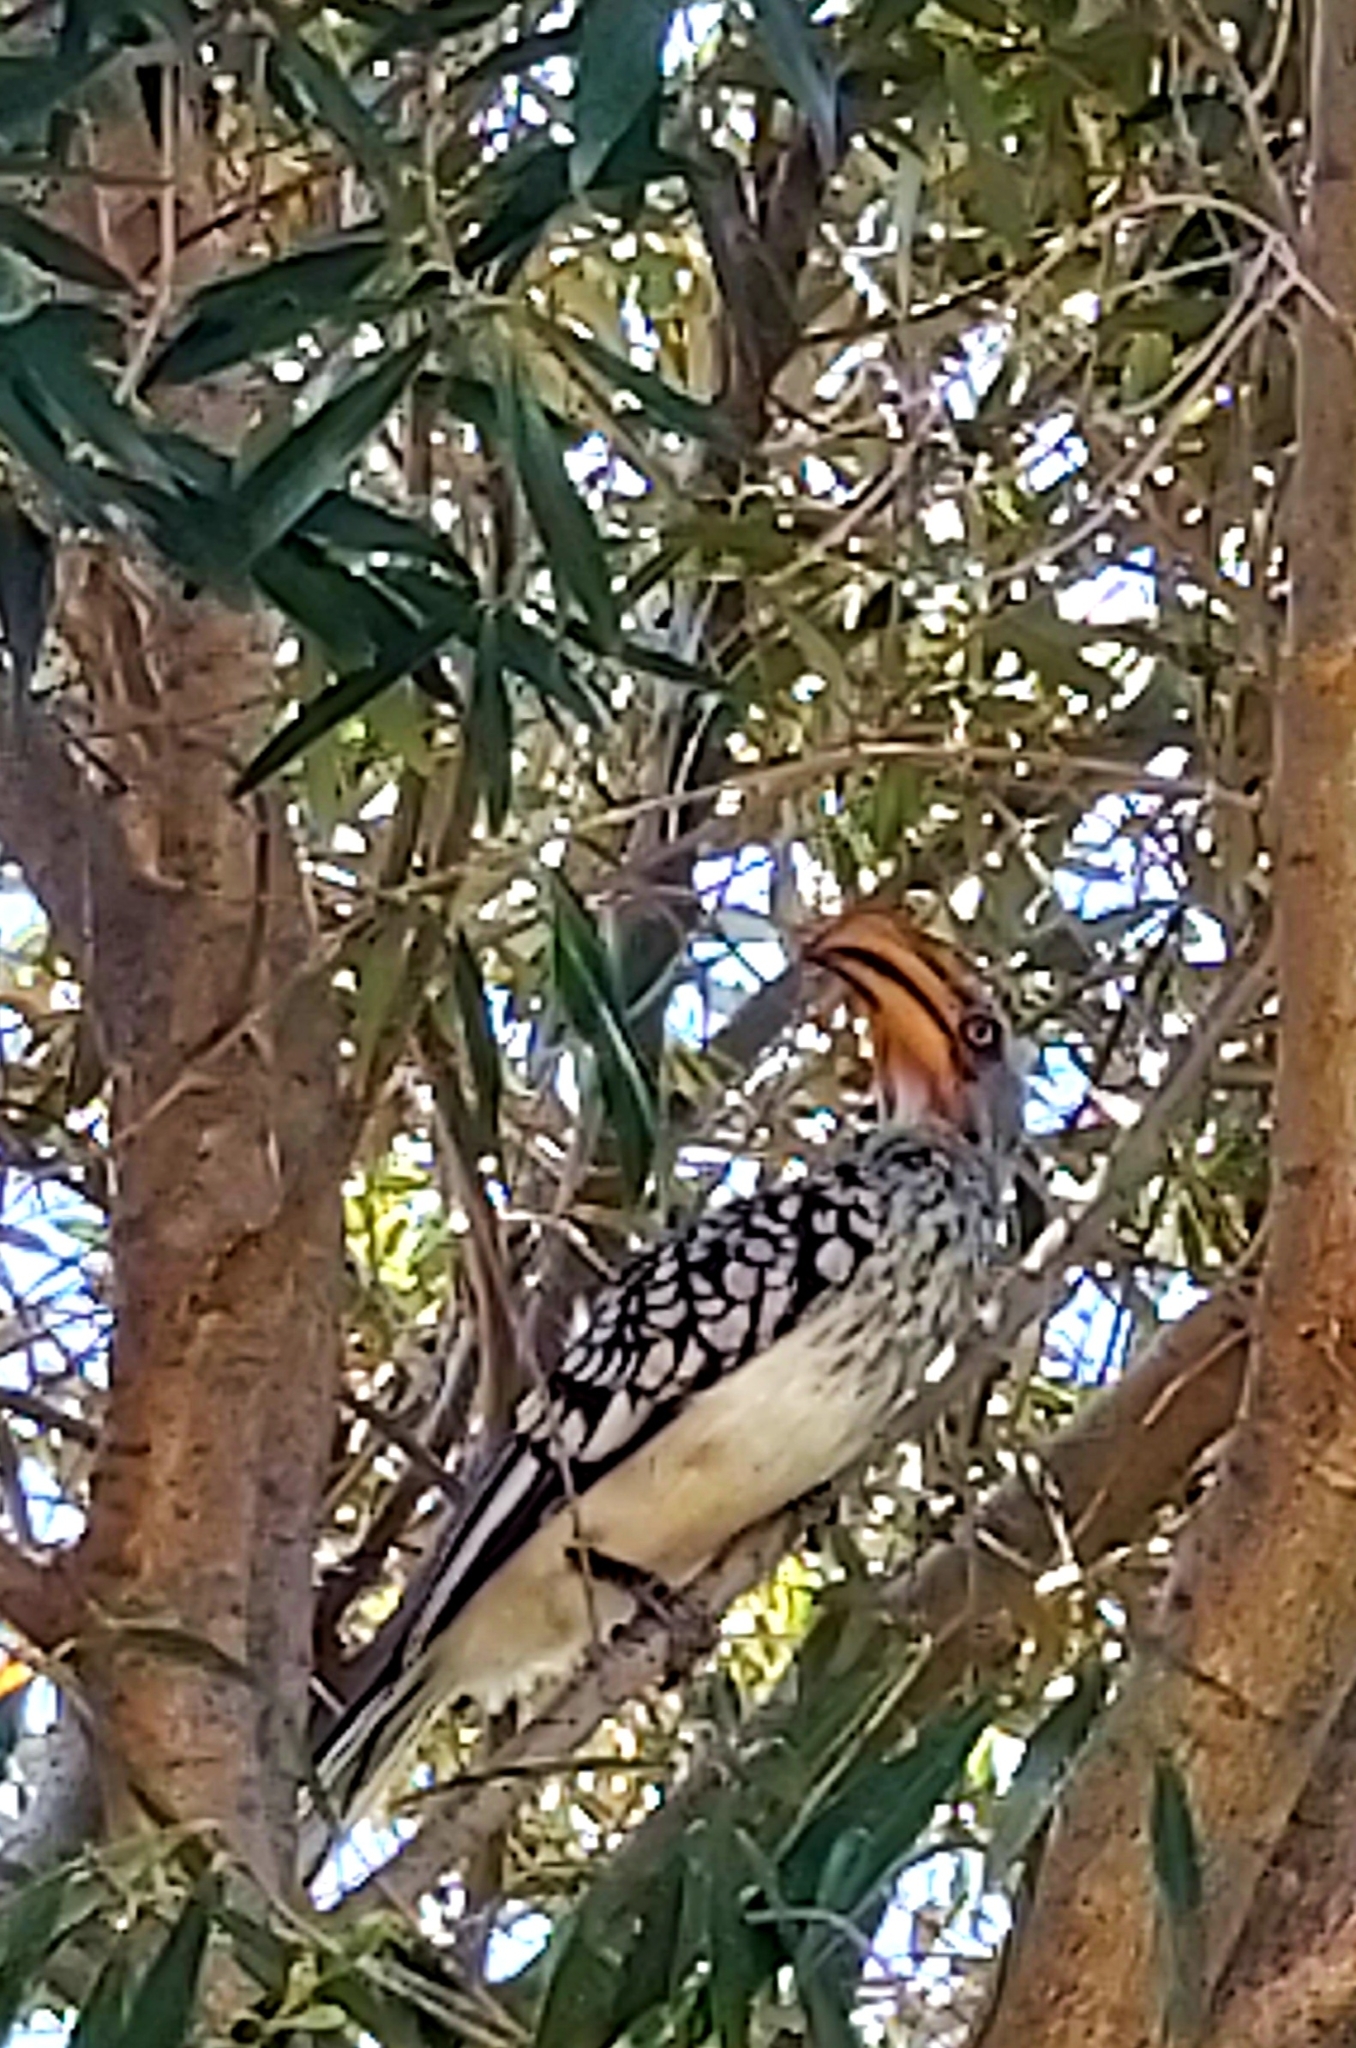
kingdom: Animalia
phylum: Chordata
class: Aves
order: Bucerotiformes
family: Bucerotidae
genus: Tockus
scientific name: Tockus leucomelas
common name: Southern yellow-billed hornbill
